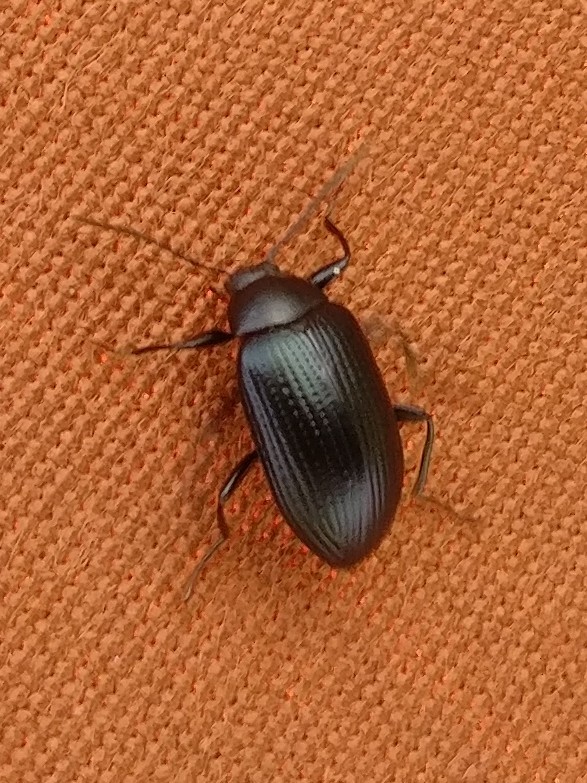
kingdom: Animalia
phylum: Arthropoda
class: Insecta
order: Coleoptera
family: Tenebrionidae
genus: Amarygmus
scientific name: Amarygmus
